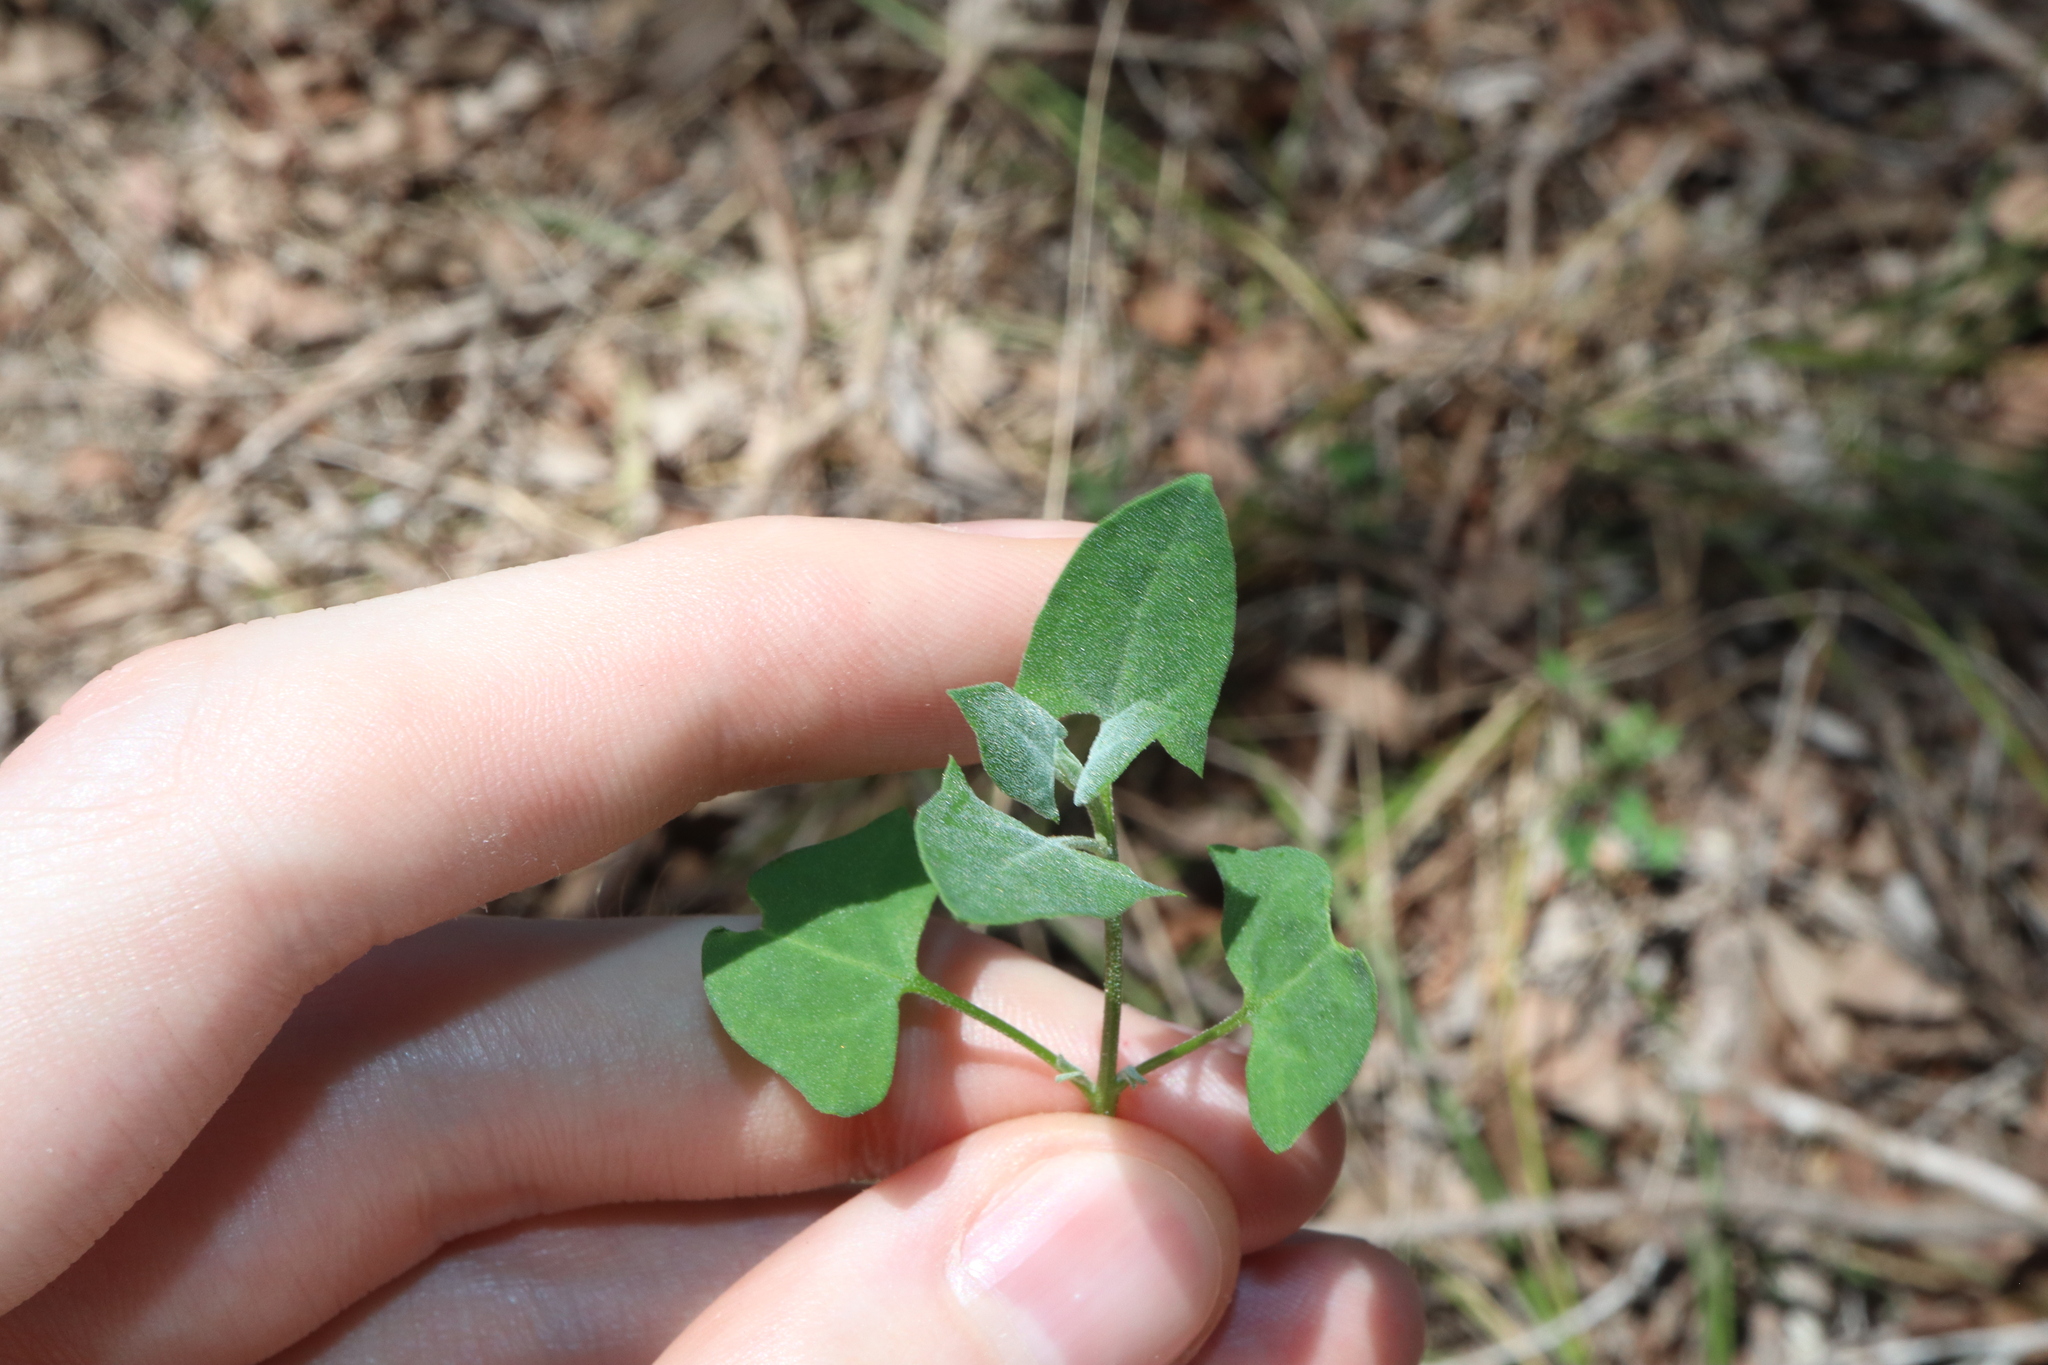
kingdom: Plantae
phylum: Tracheophyta
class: Magnoliopsida
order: Caryophyllales
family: Amaranthaceae
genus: Chenopodium
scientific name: Chenopodium trigonon
